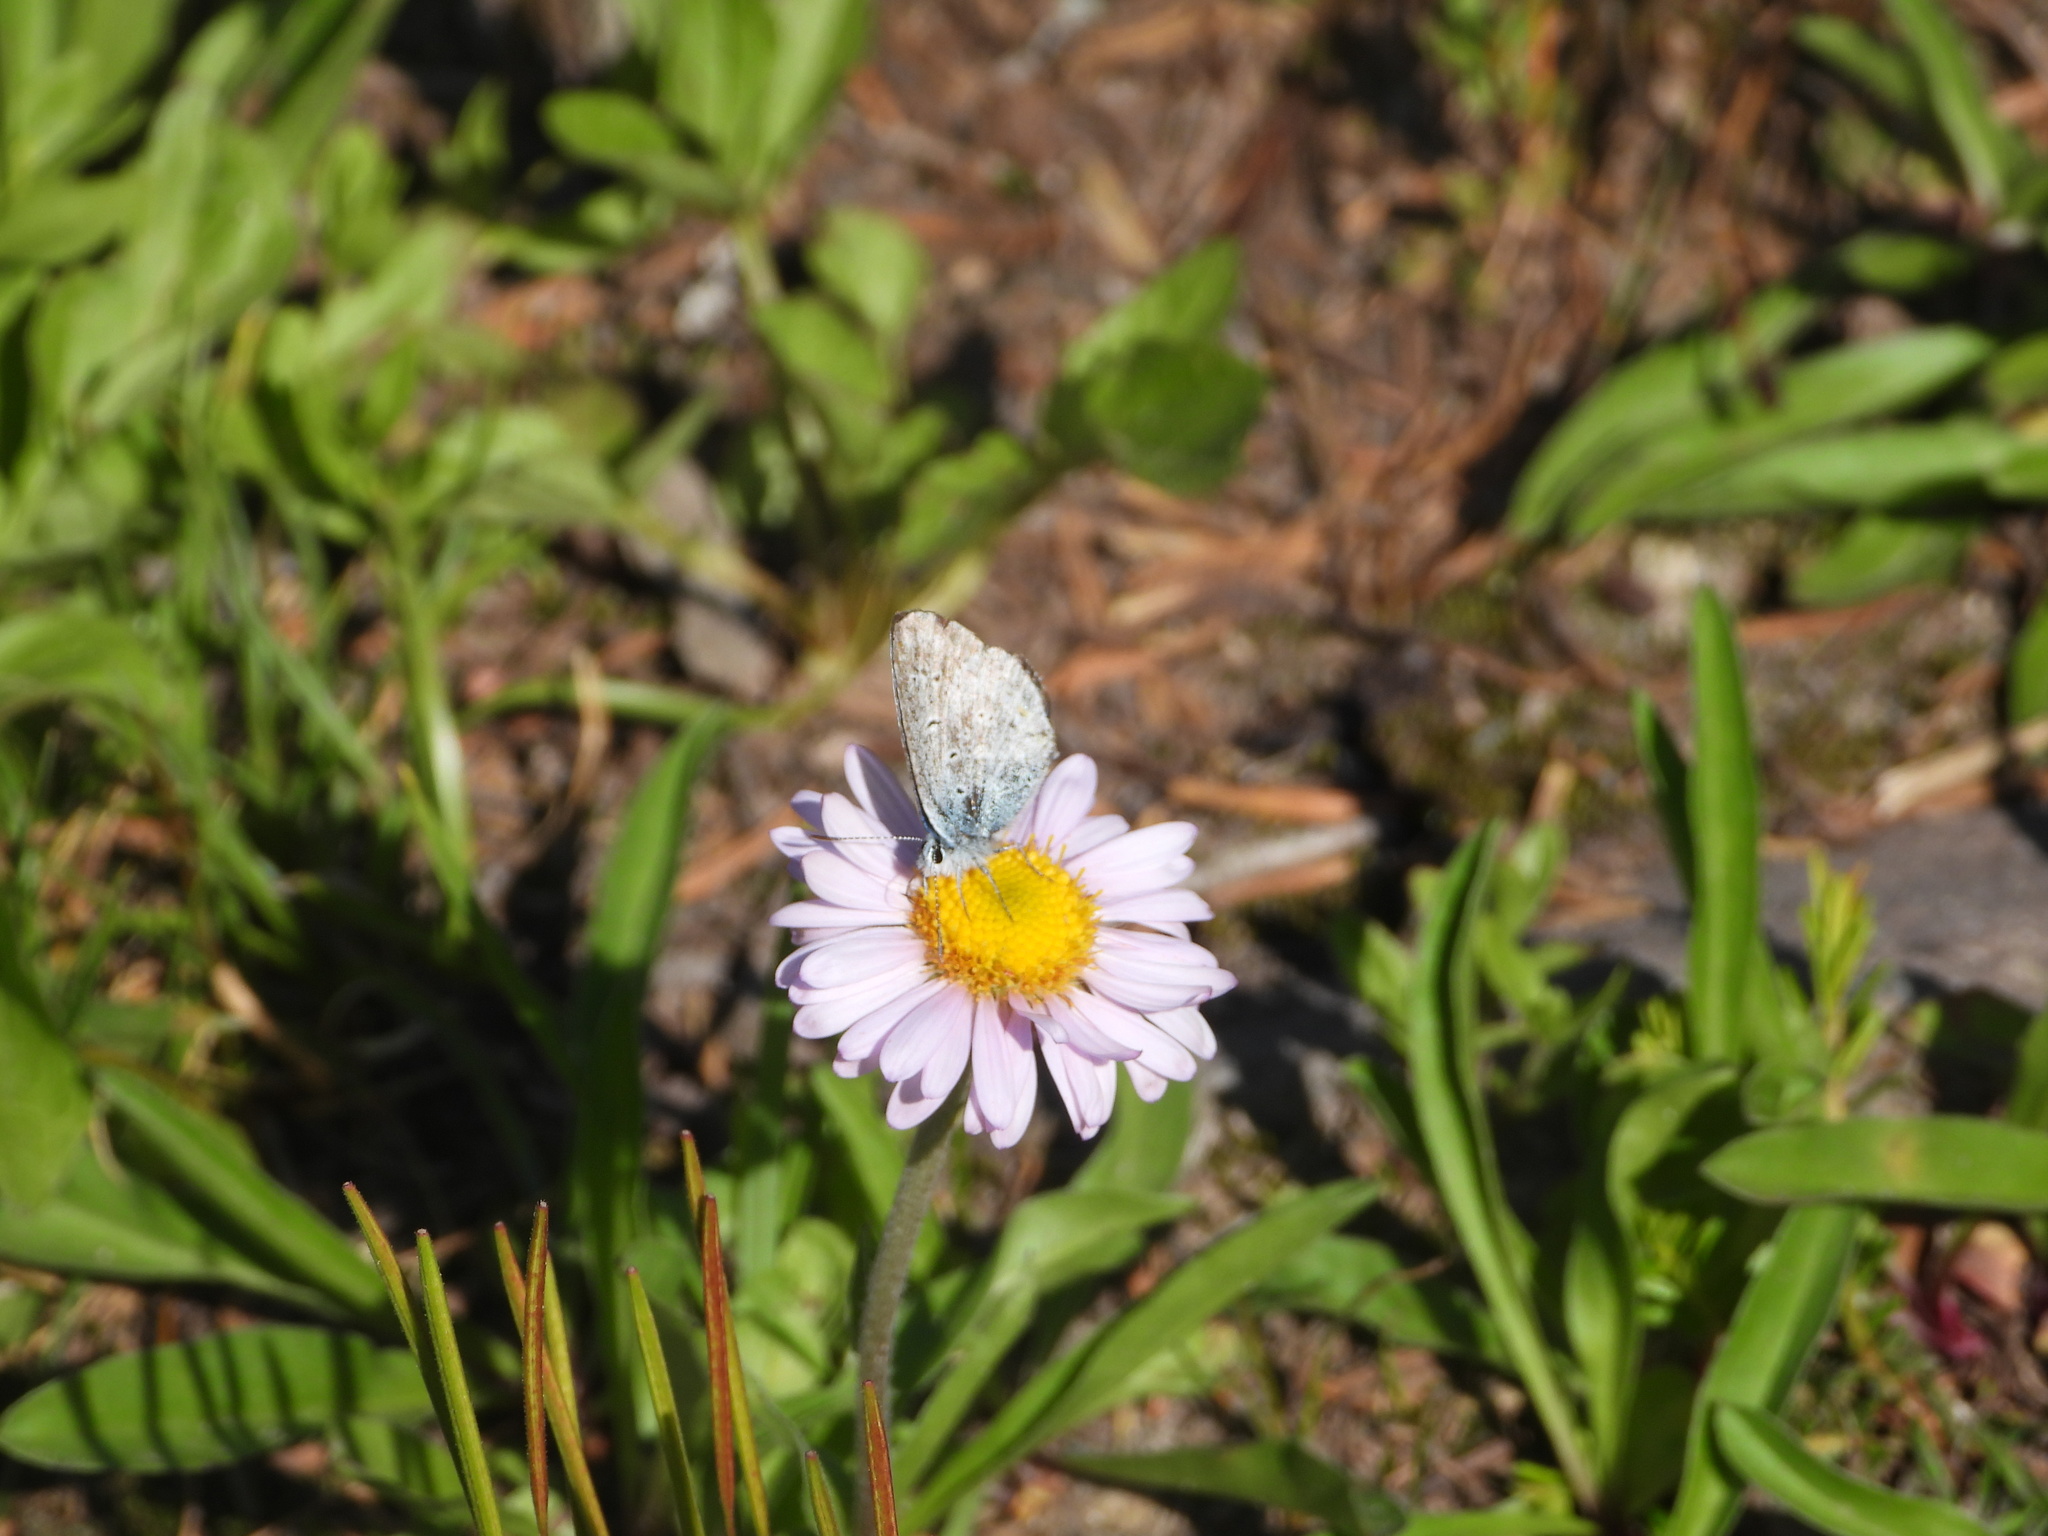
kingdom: Animalia
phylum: Arthropoda
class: Insecta
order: Lepidoptera
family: Lycaenidae
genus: Lycaeides
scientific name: Lycaeides anna
